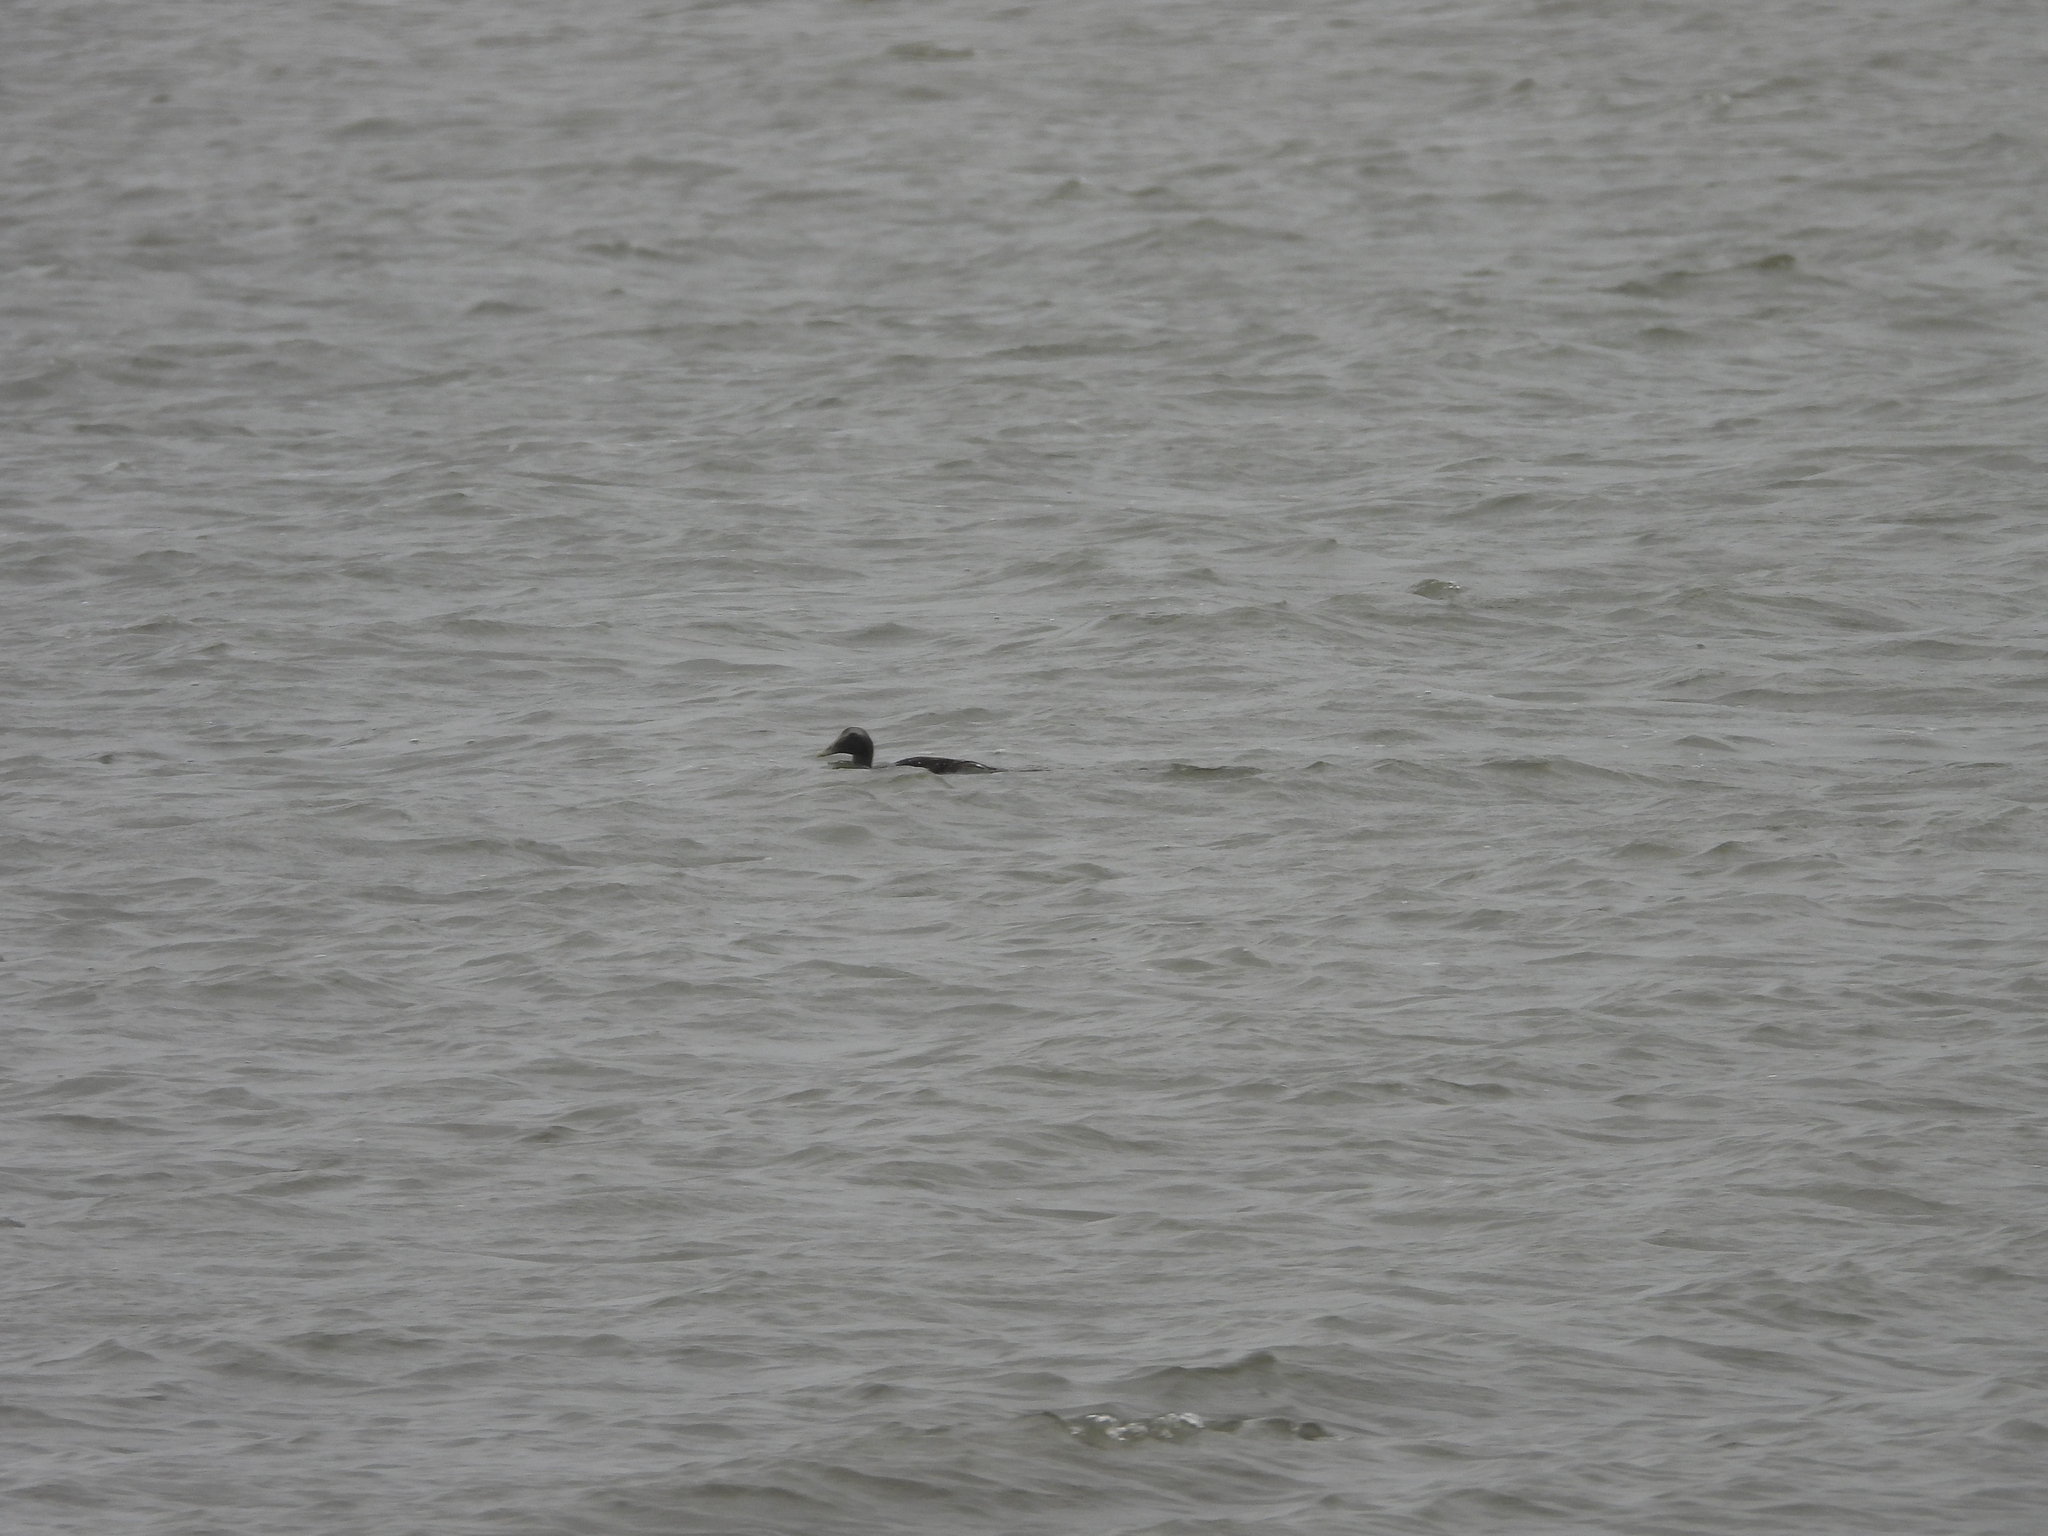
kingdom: Animalia
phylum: Chordata
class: Aves
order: Anseriformes
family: Anatidae
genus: Somateria
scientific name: Somateria mollissima
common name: Common eider
